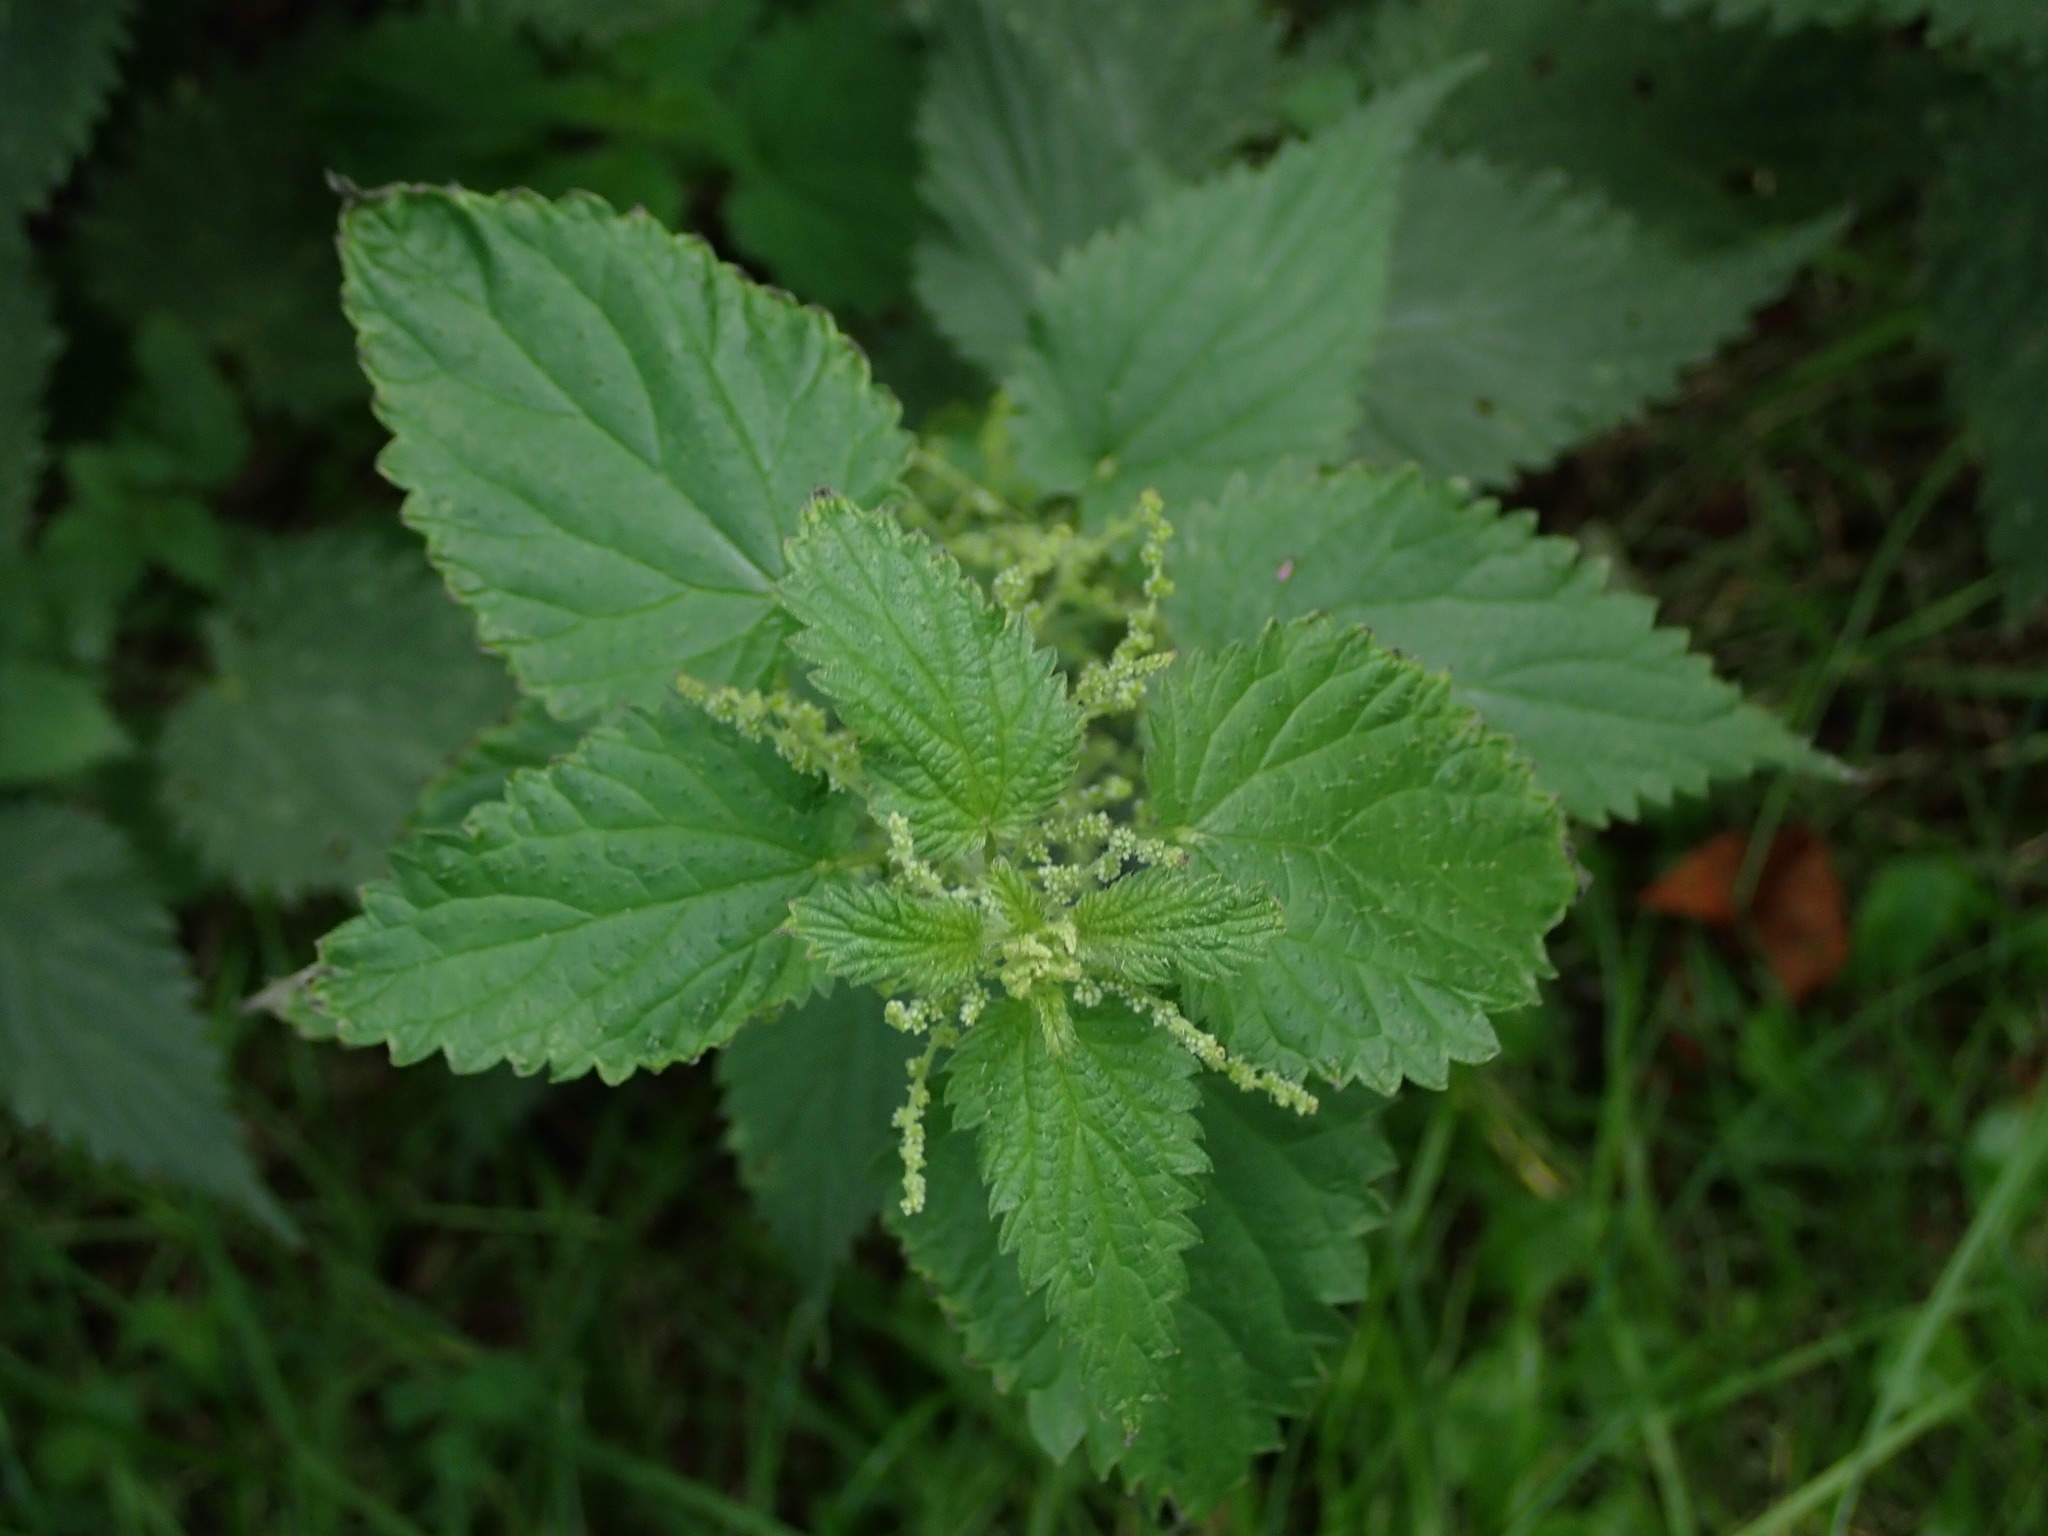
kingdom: Plantae
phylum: Tracheophyta
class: Magnoliopsida
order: Rosales
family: Urticaceae
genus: Urtica
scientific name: Urtica dioica
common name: Common nettle
